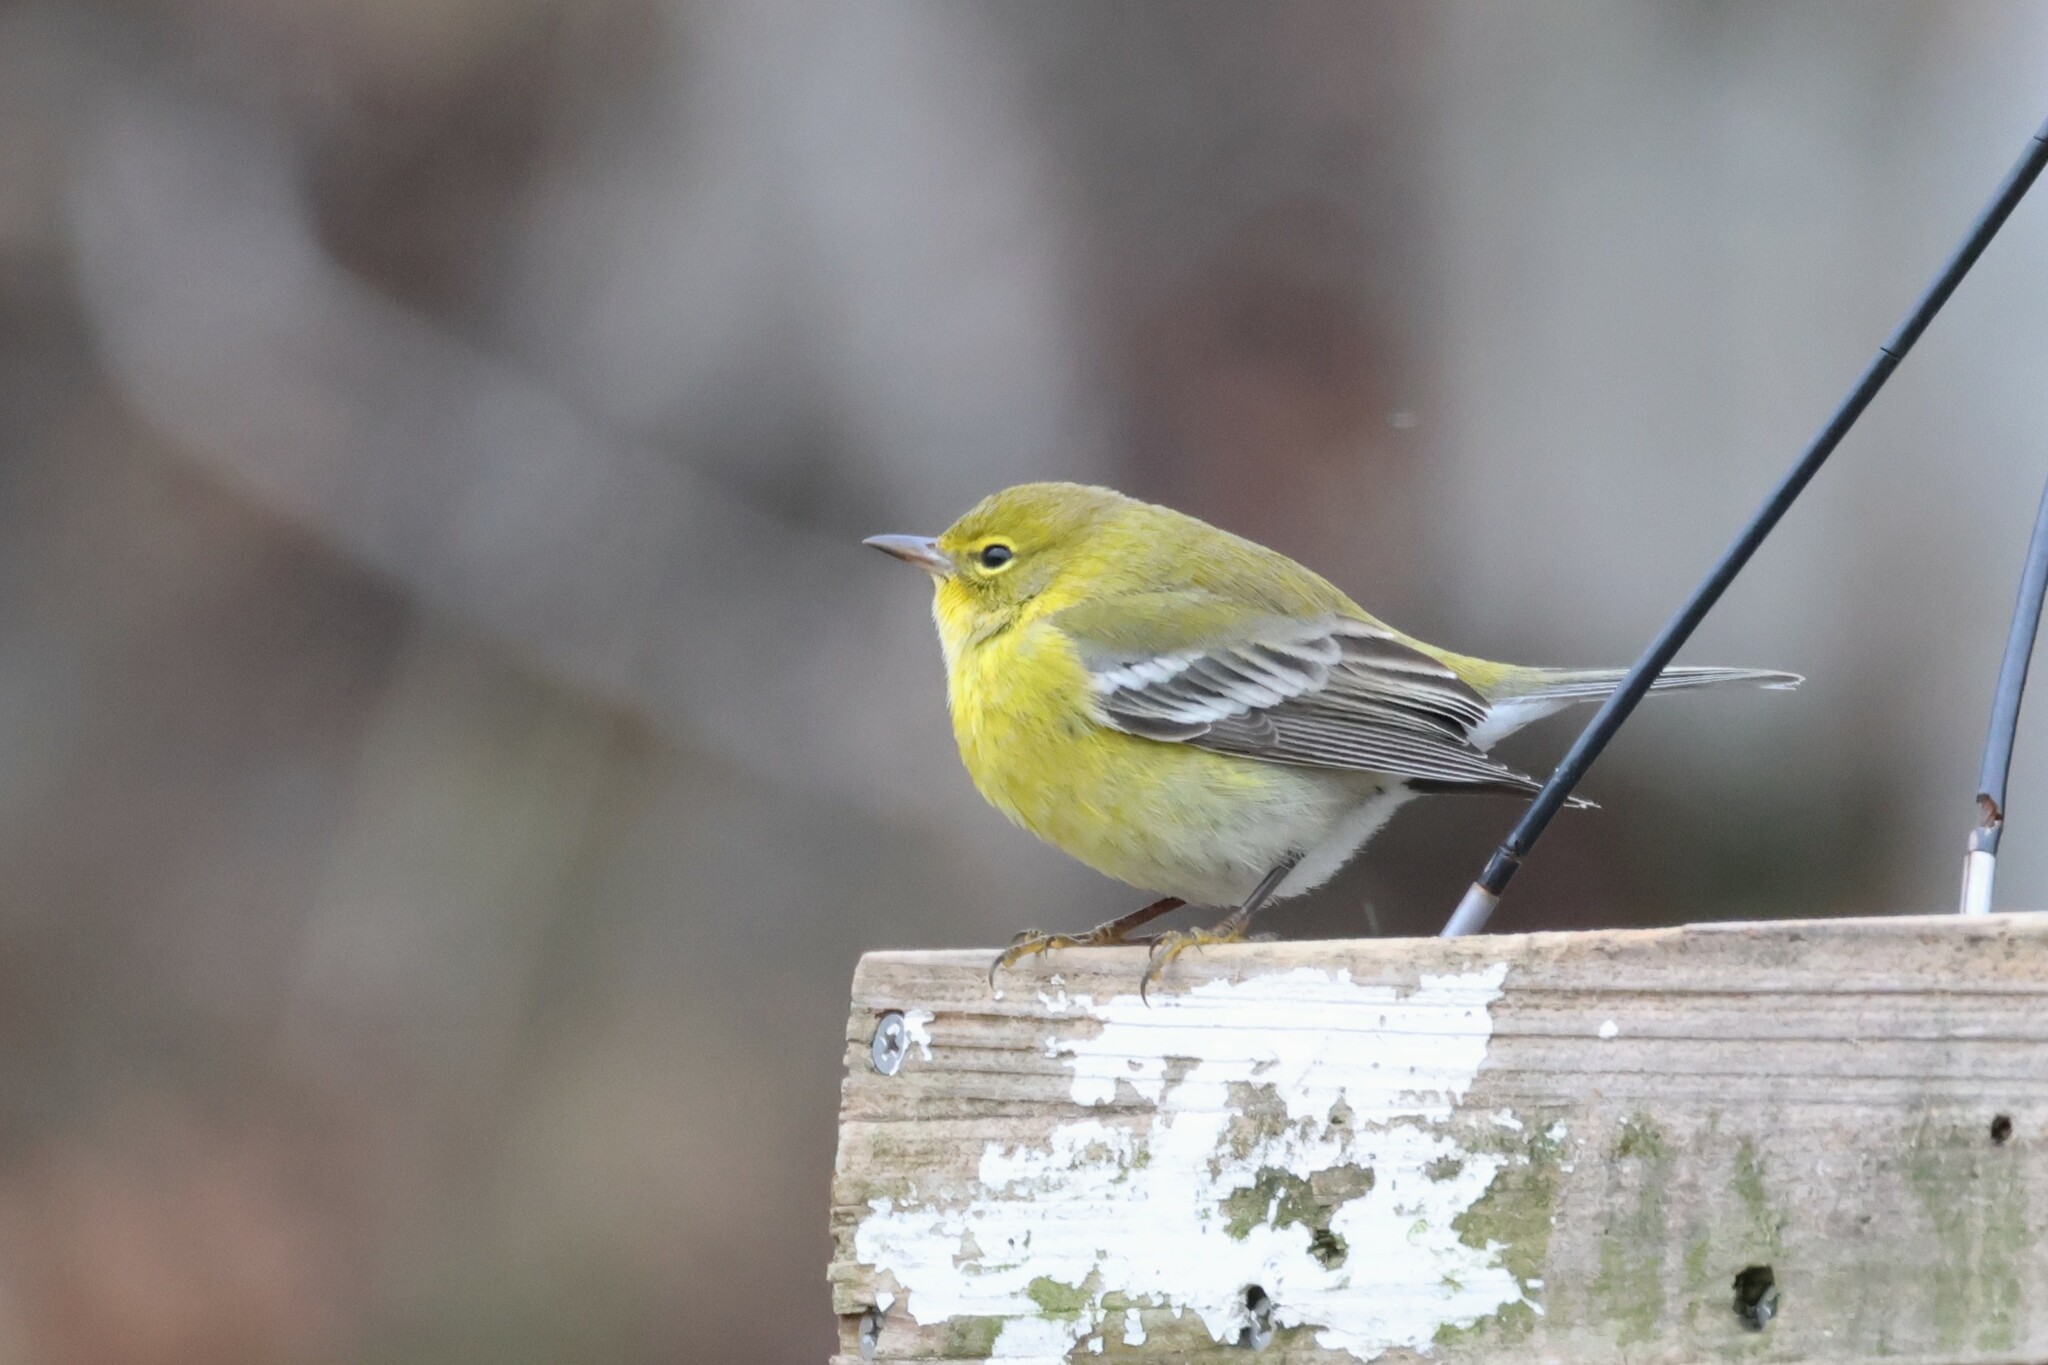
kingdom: Animalia
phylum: Chordata
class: Aves
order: Passeriformes
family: Parulidae
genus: Setophaga
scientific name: Setophaga pinus
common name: Pine warbler
